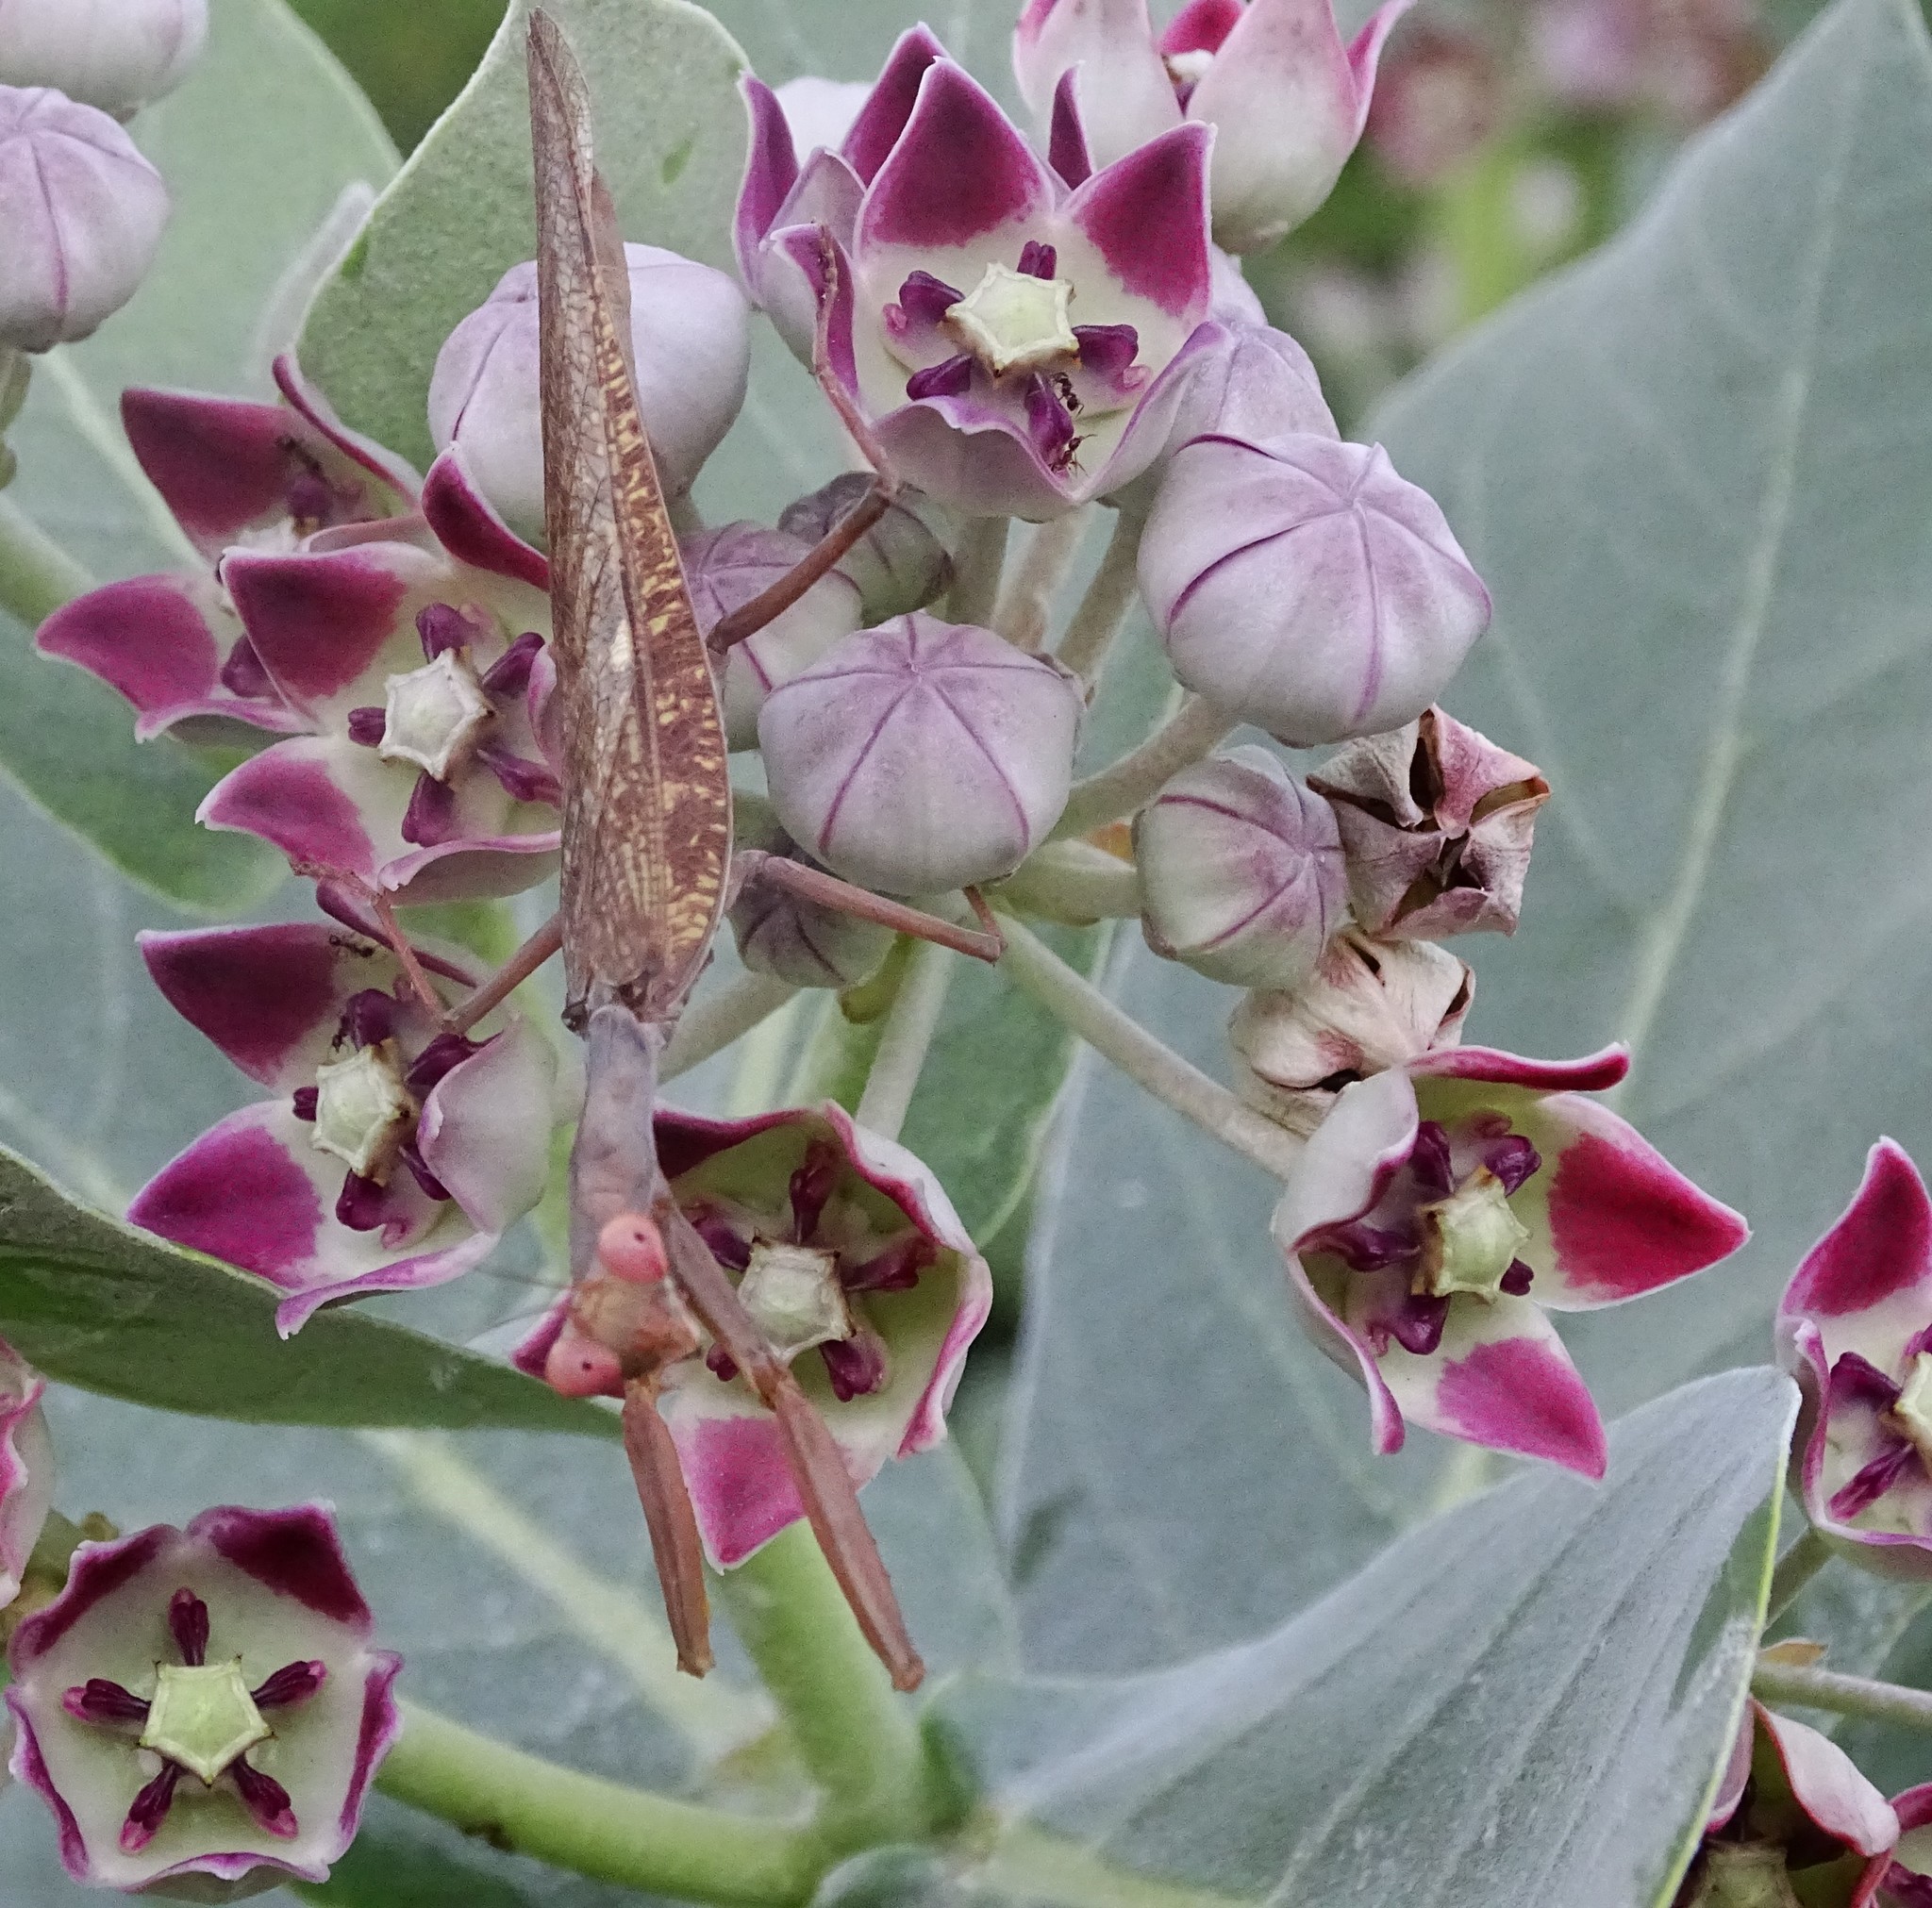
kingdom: Animalia
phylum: Arthropoda
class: Insecta
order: Mantodea
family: Mantidae
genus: Hierodula
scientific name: Hierodula patellifera
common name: Asian mantis
